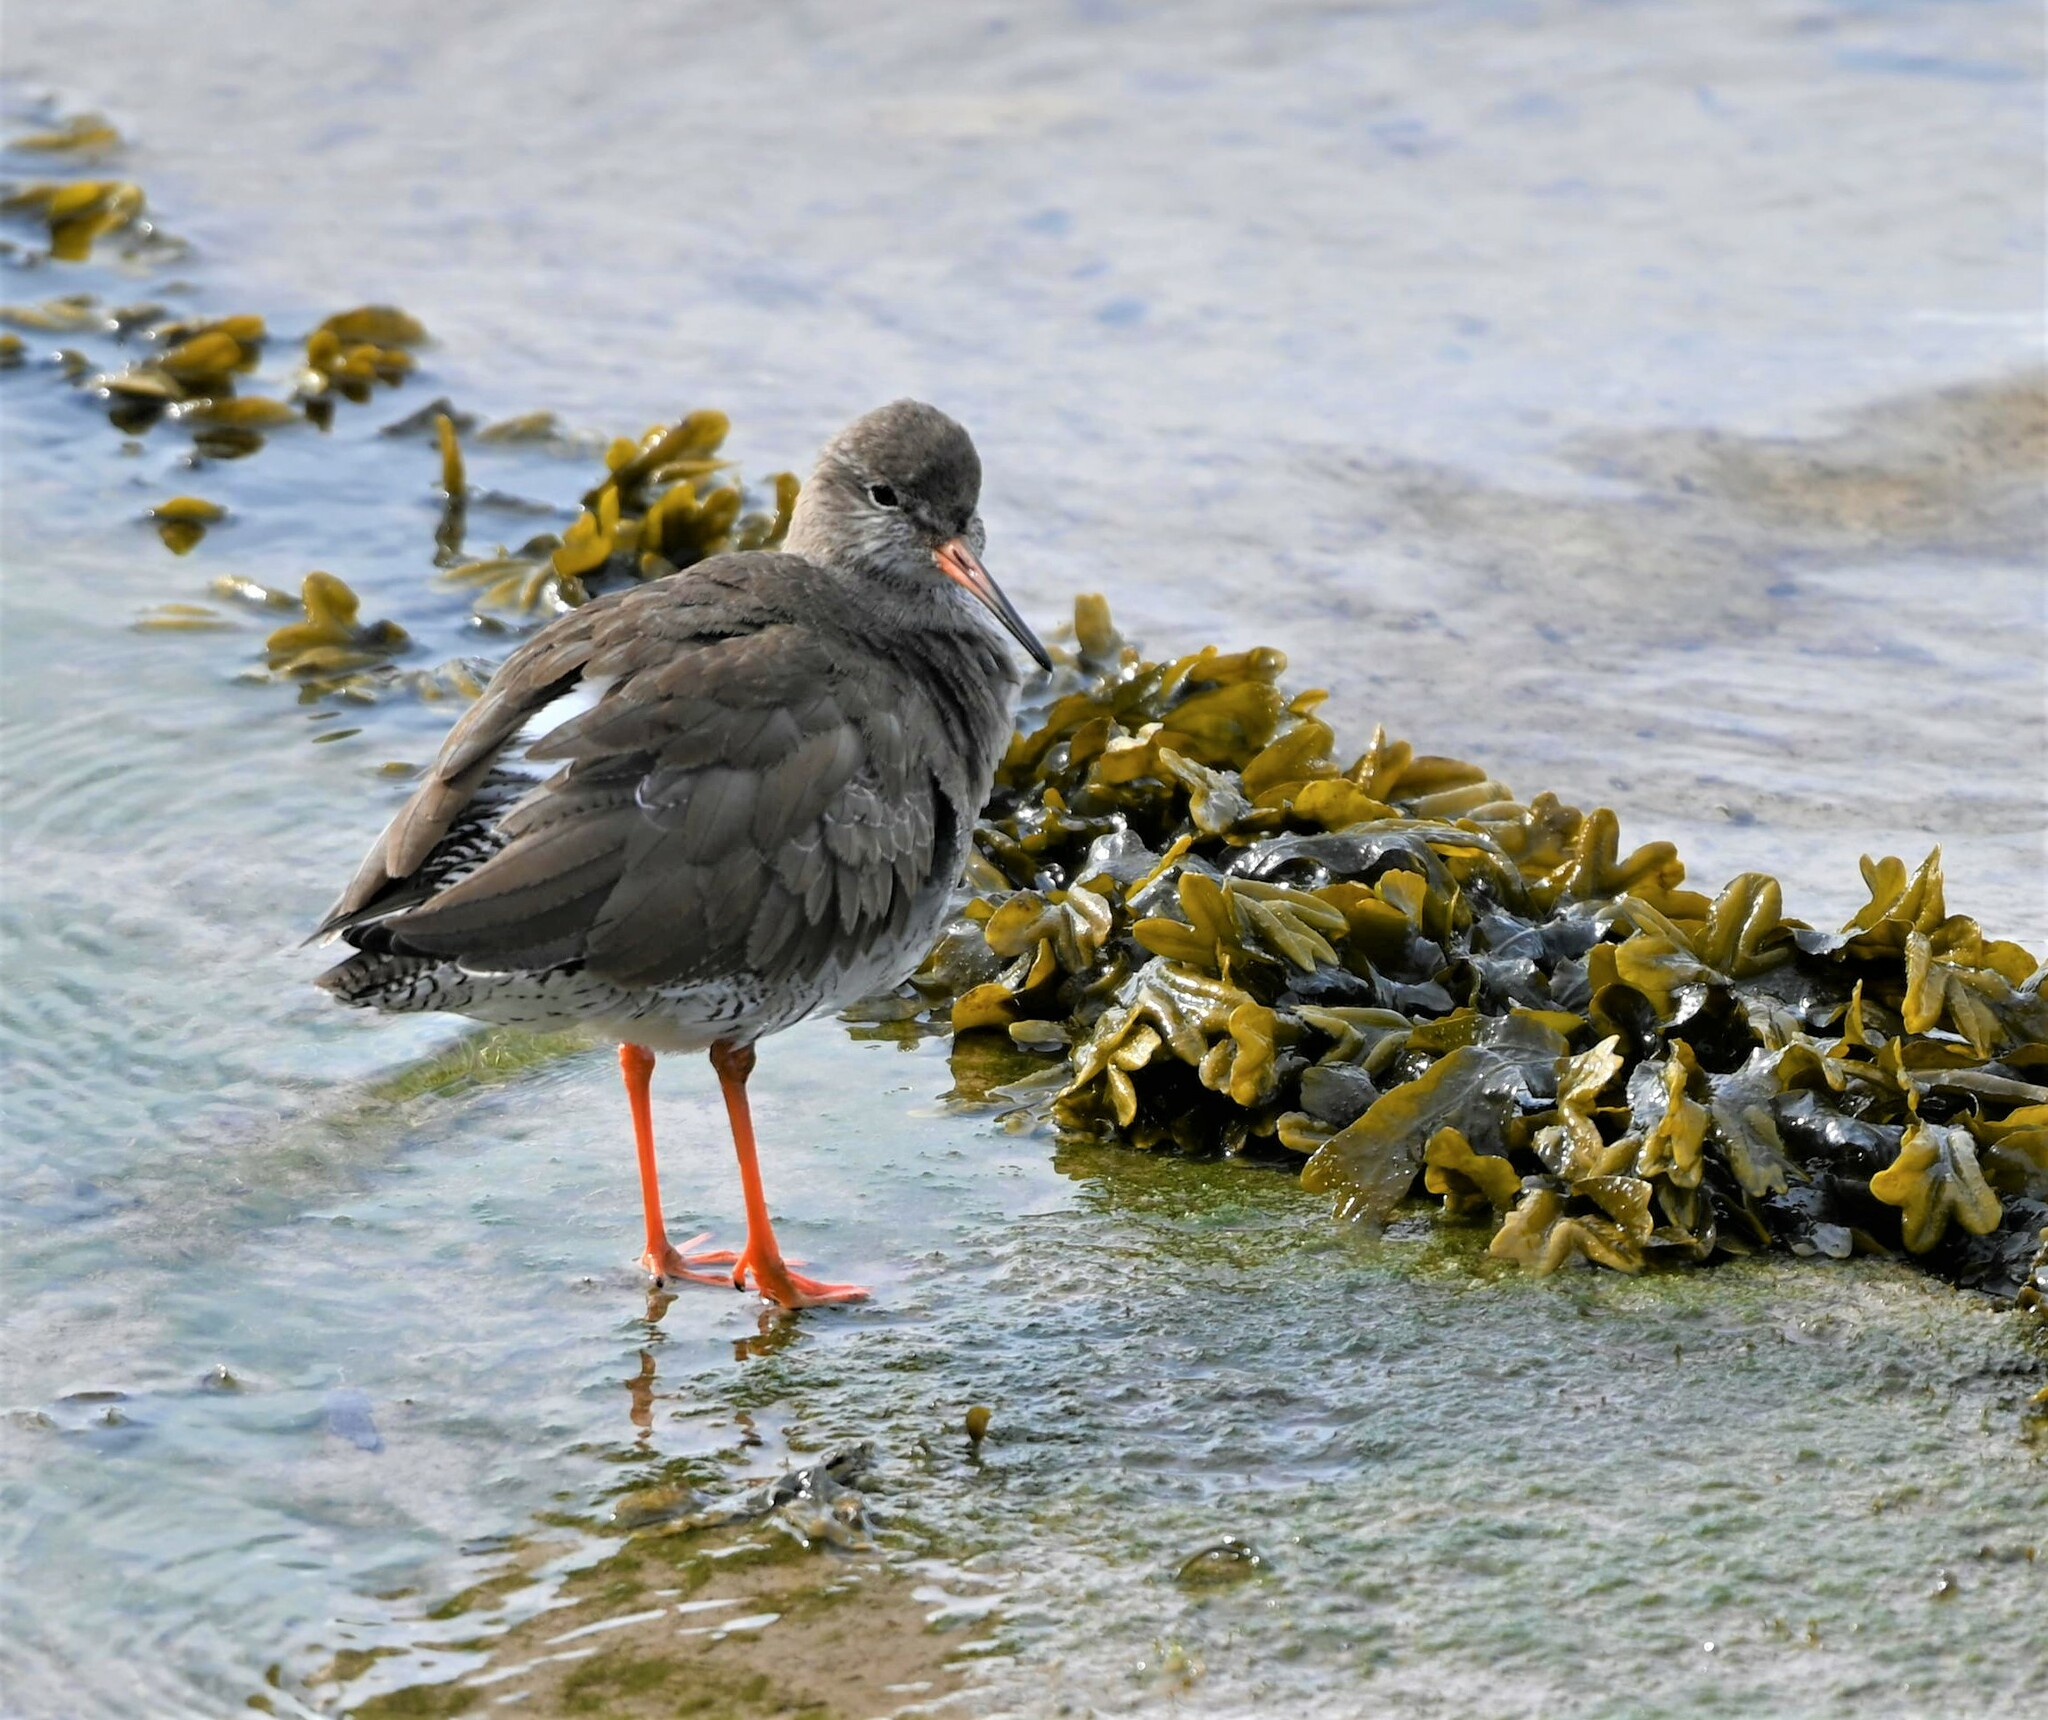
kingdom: Animalia
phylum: Chordata
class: Aves
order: Charadriiformes
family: Scolopacidae
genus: Tringa
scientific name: Tringa totanus
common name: Common redshank
